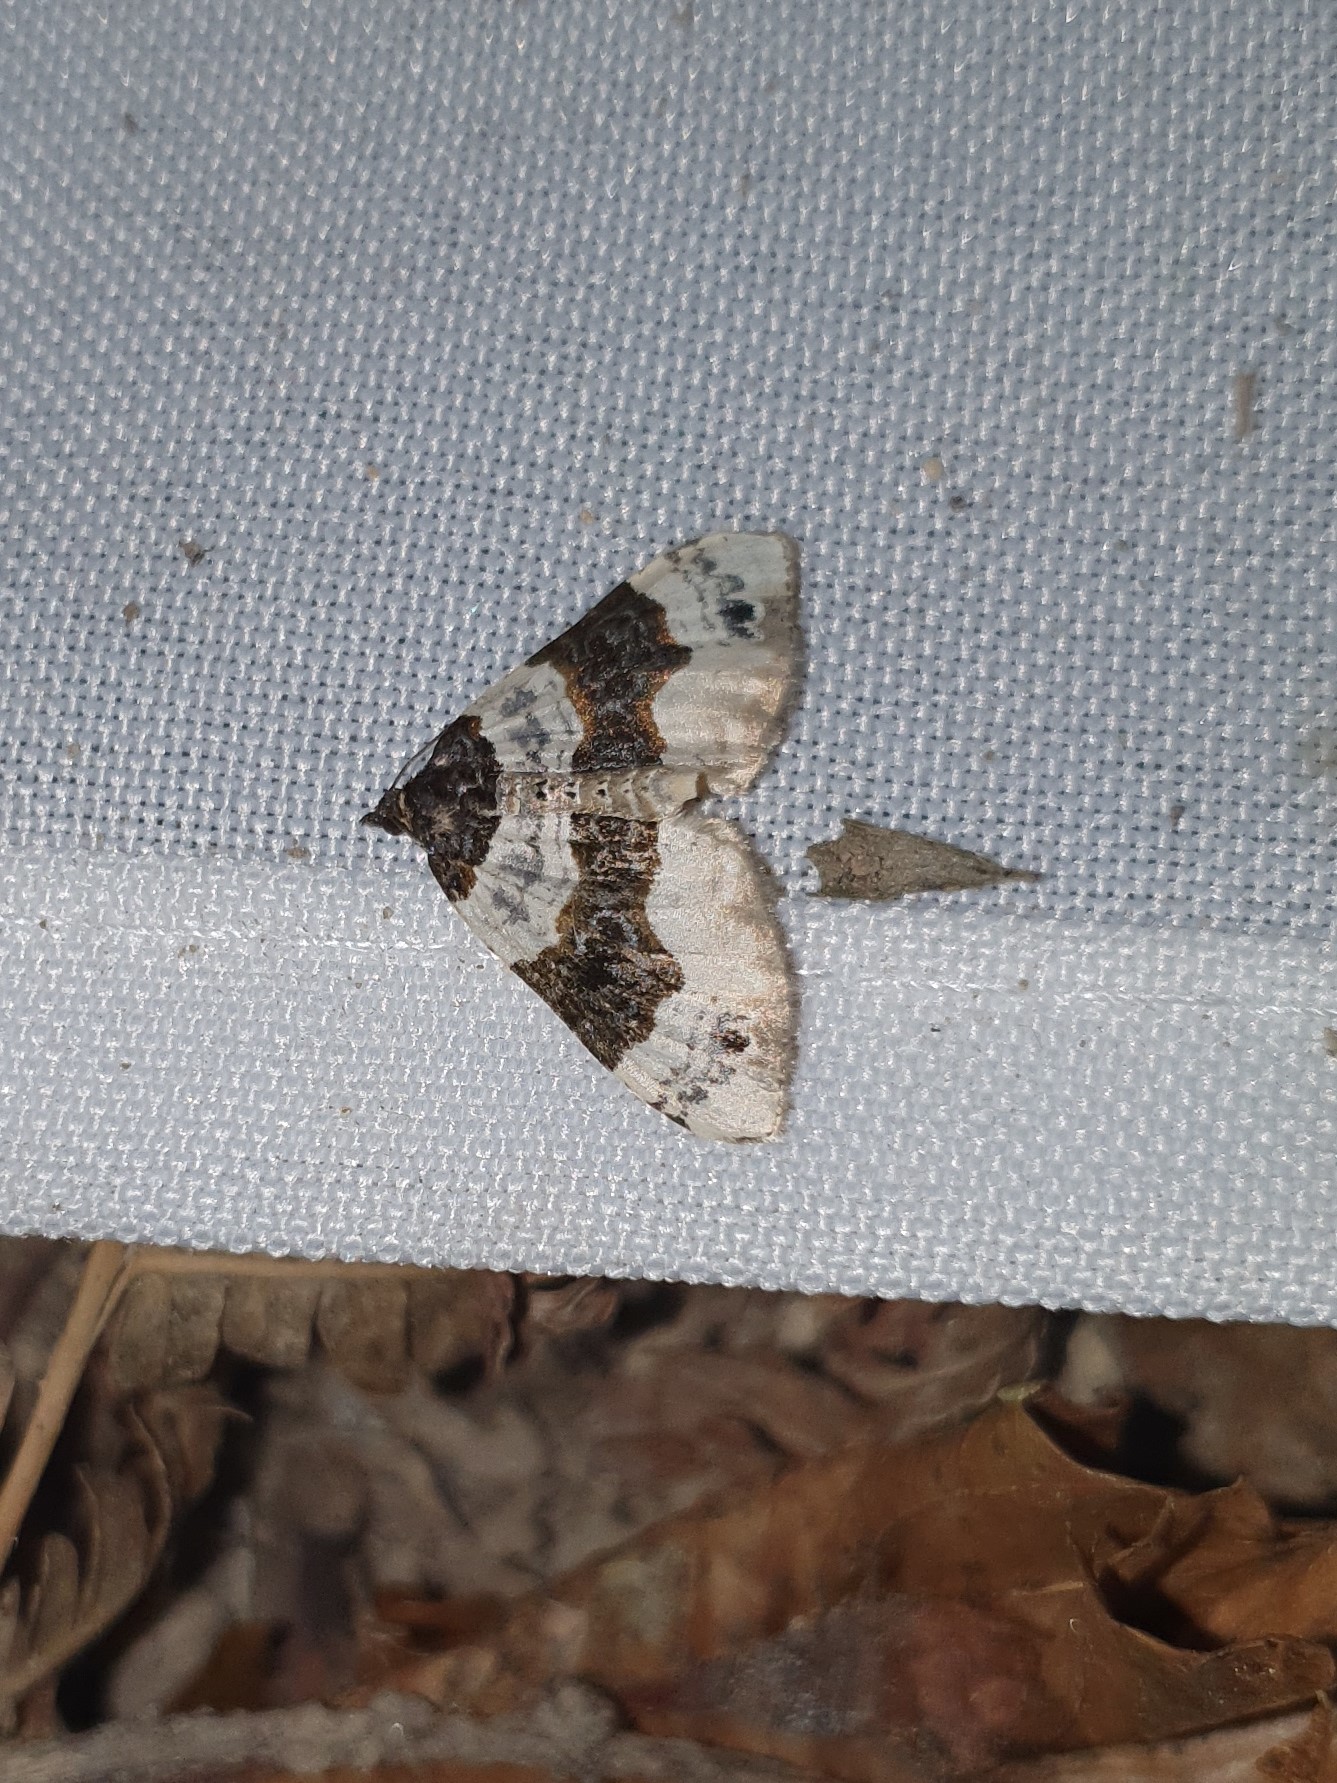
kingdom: Animalia
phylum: Arthropoda
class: Insecta
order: Lepidoptera
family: Geometridae
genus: Cosmorhoe
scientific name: Cosmorhoe ocellata
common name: Purple bar
